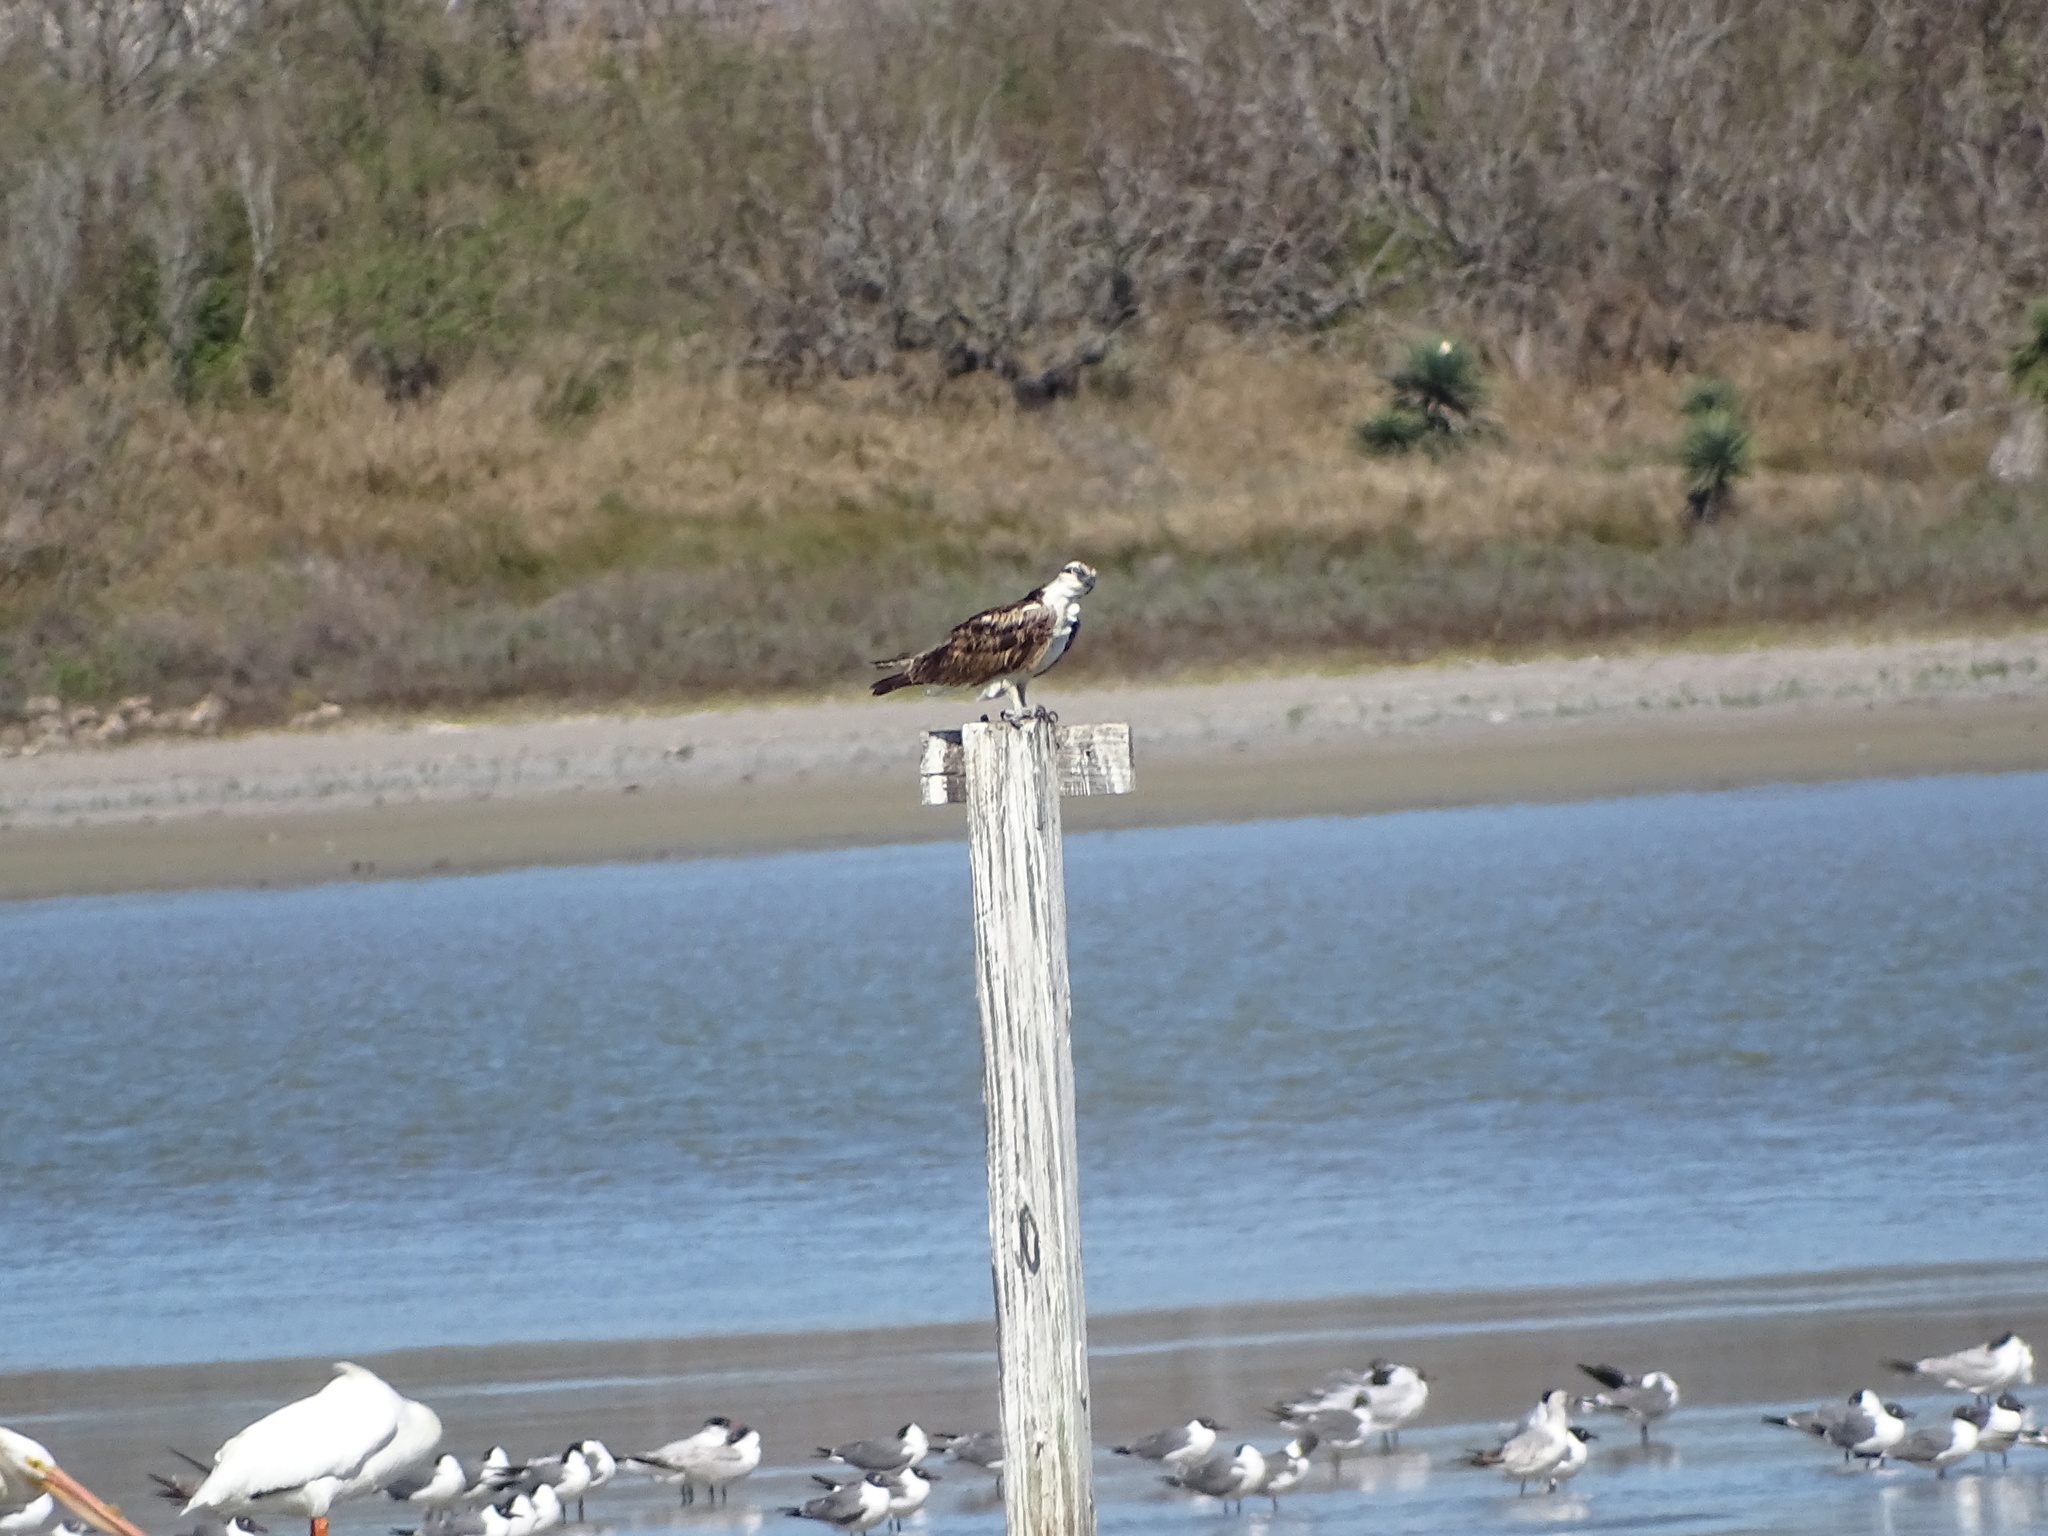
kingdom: Animalia
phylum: Chordata
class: Aves
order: Accipitriformes
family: Pandionidae
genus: Pandion
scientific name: Pandion haliaetus
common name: Osprey
